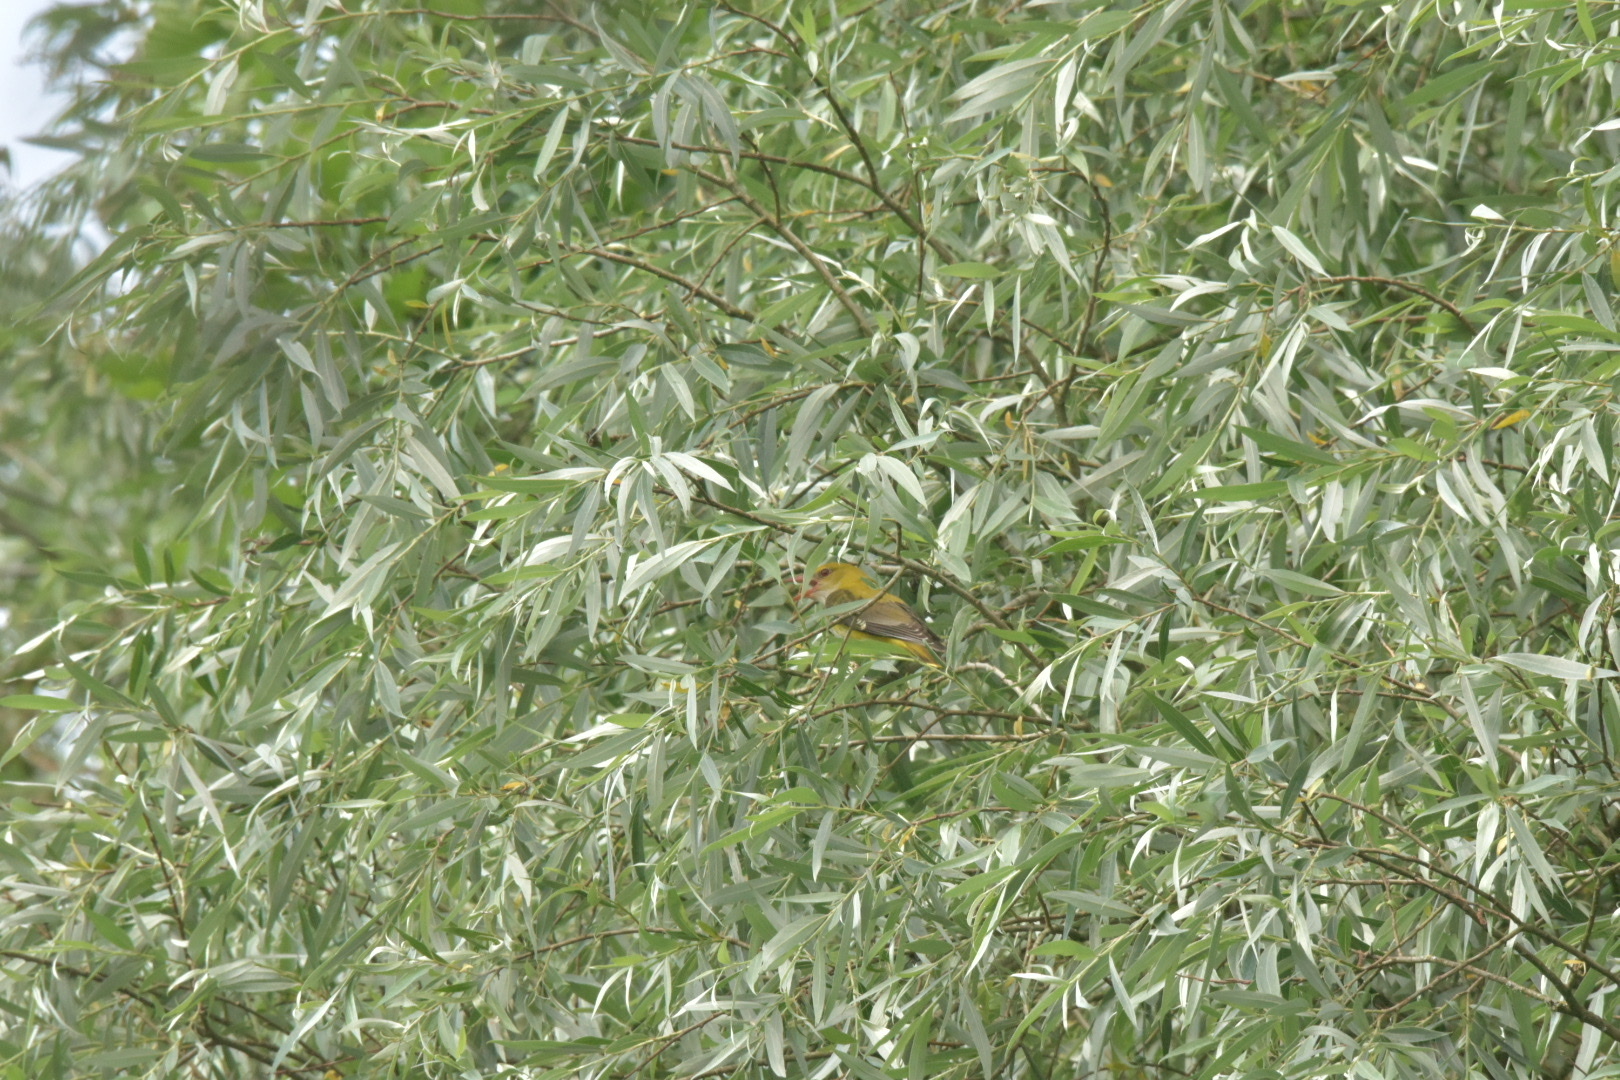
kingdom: Animalia
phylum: Chordata
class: Aves
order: Passeriformes
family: Oriolidae
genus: Oriolus
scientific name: Oriolus oriolus
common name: Eurasian golden oriole
